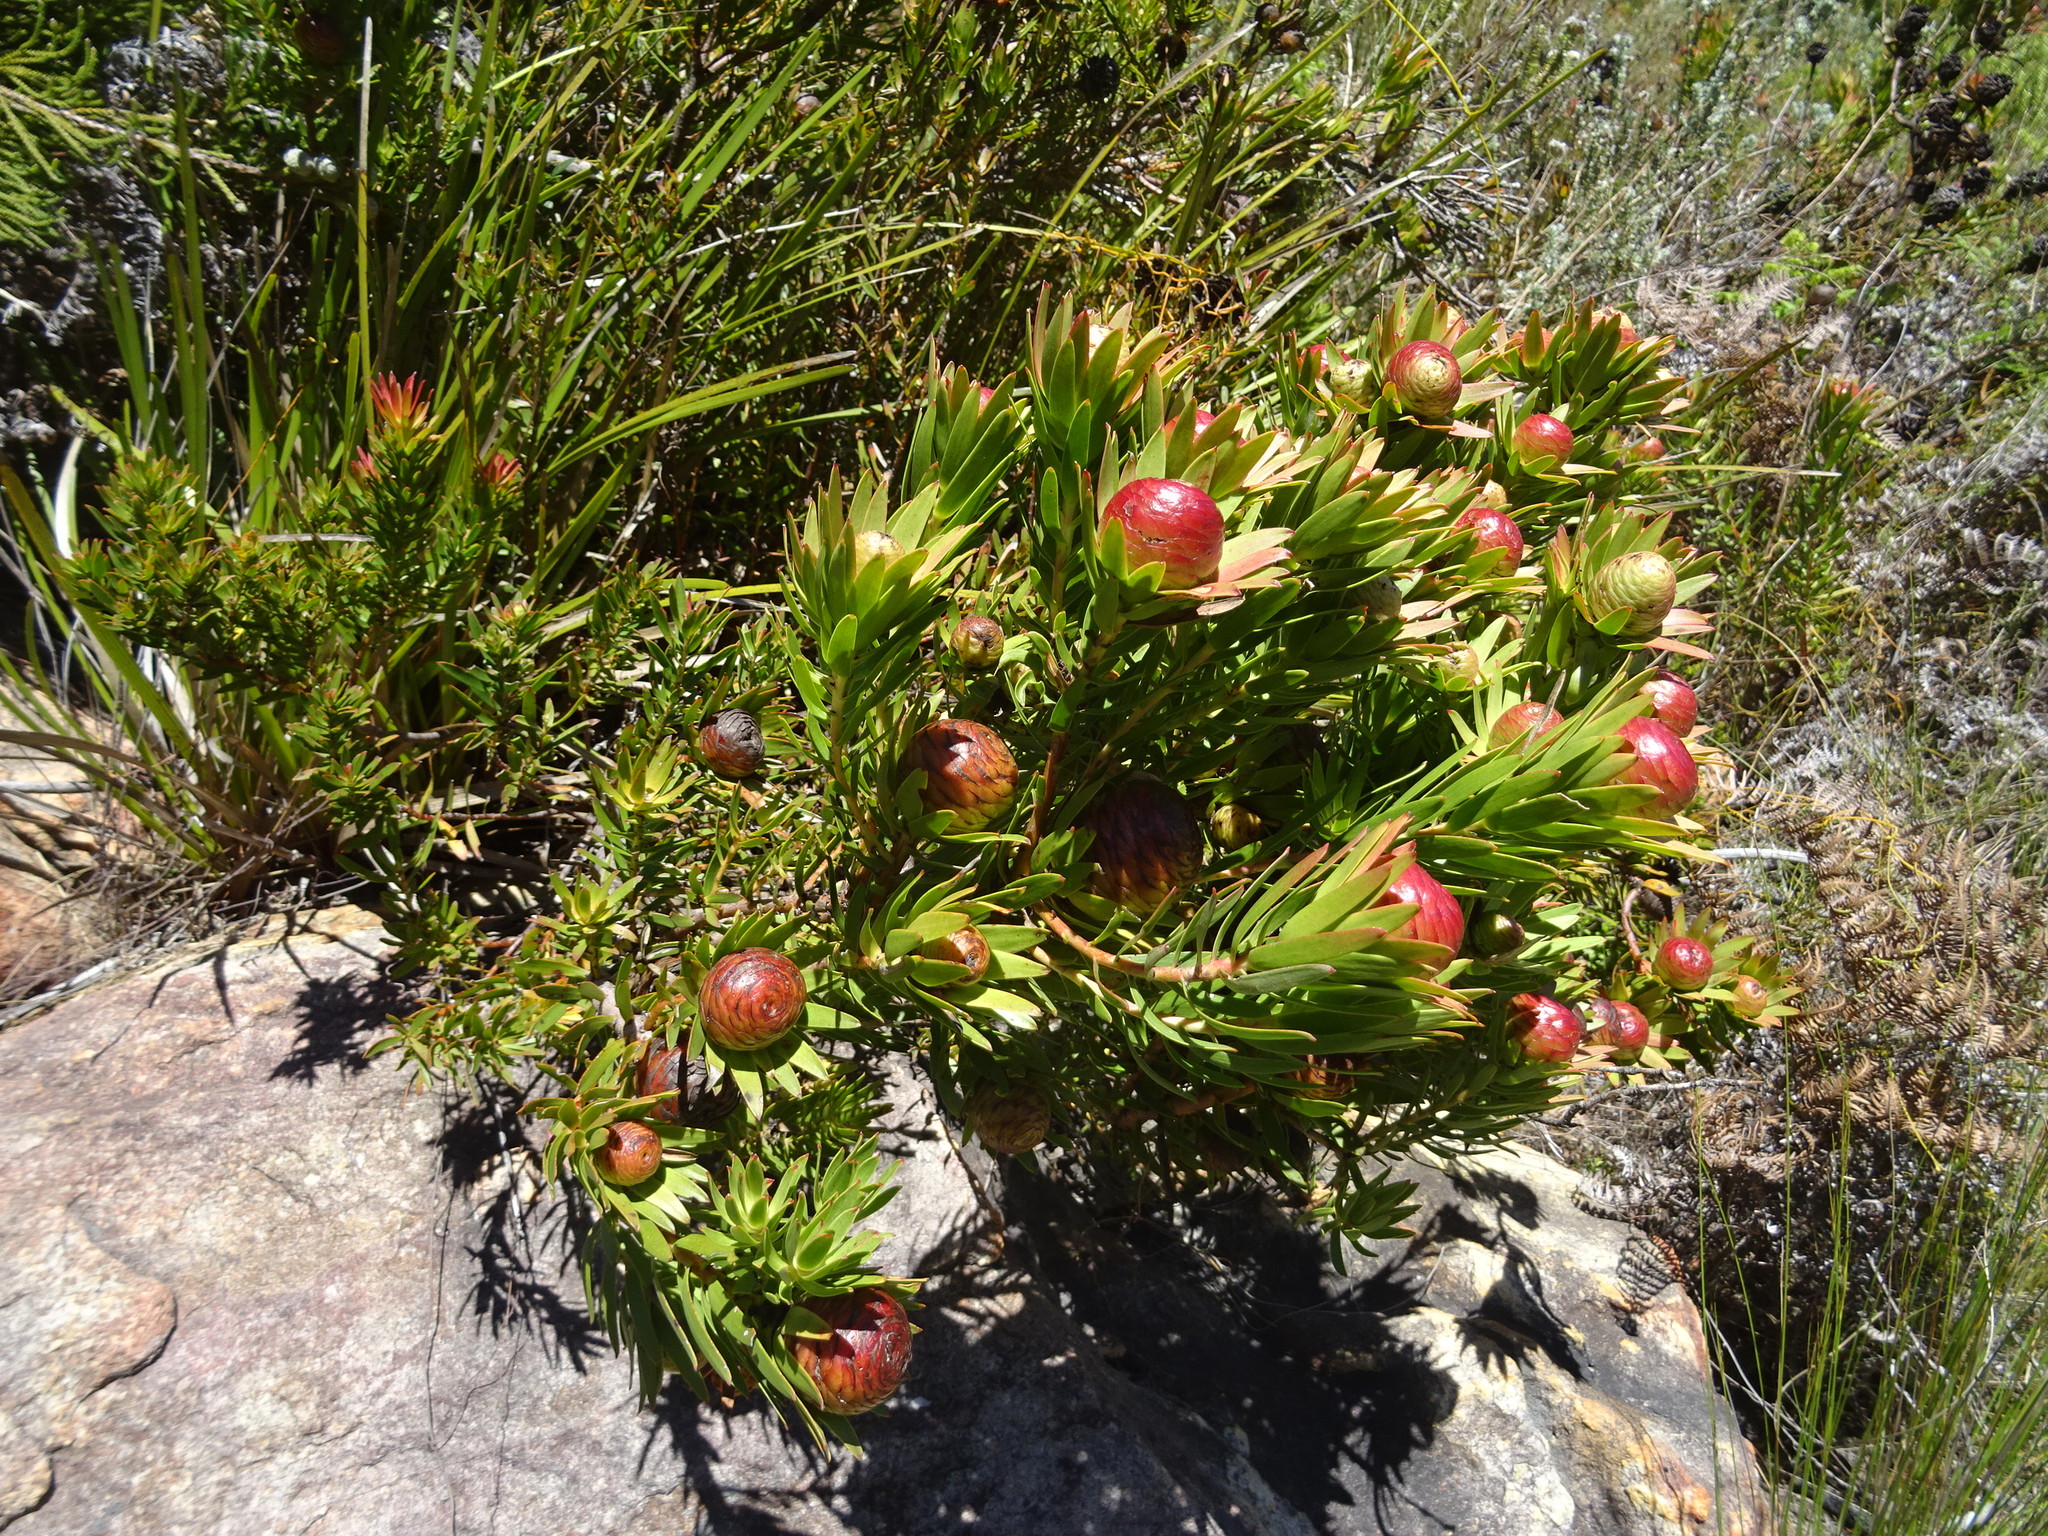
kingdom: Plantae
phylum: Tracheophyta
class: Magnoliopsida
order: Proteales
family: Proteaceae
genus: Leucadendron
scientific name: Leucadendron spissifolium
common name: Spear-leaf conebush
